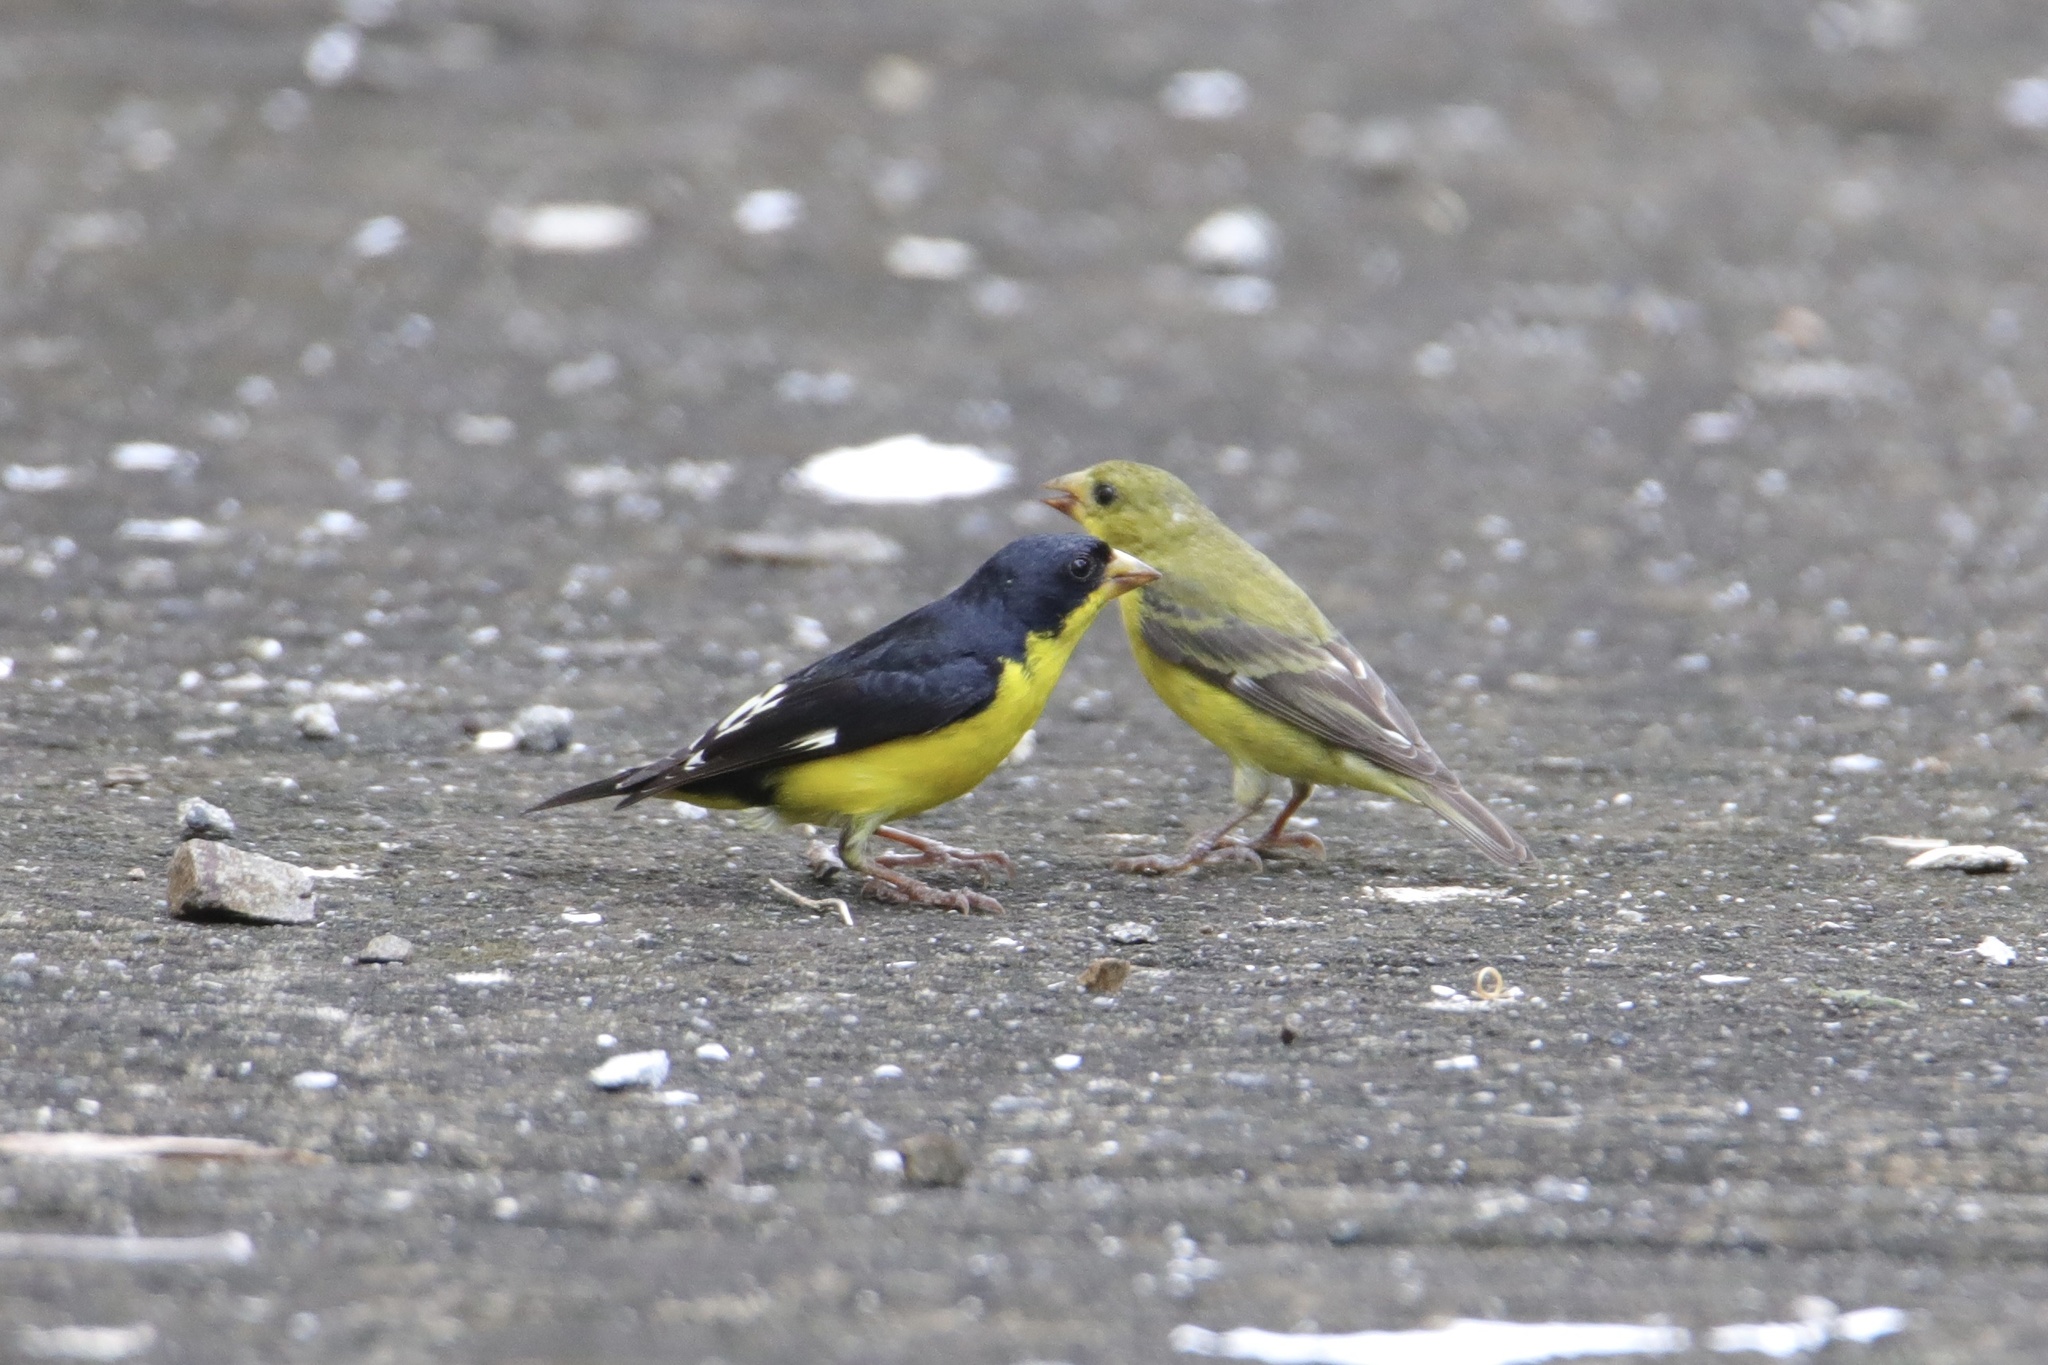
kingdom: Animalia
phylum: Chordata
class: Aves
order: Passeriformes
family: Fringillidae
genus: Spinus
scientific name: Spinus psaltria
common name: Lesser goldfinch
